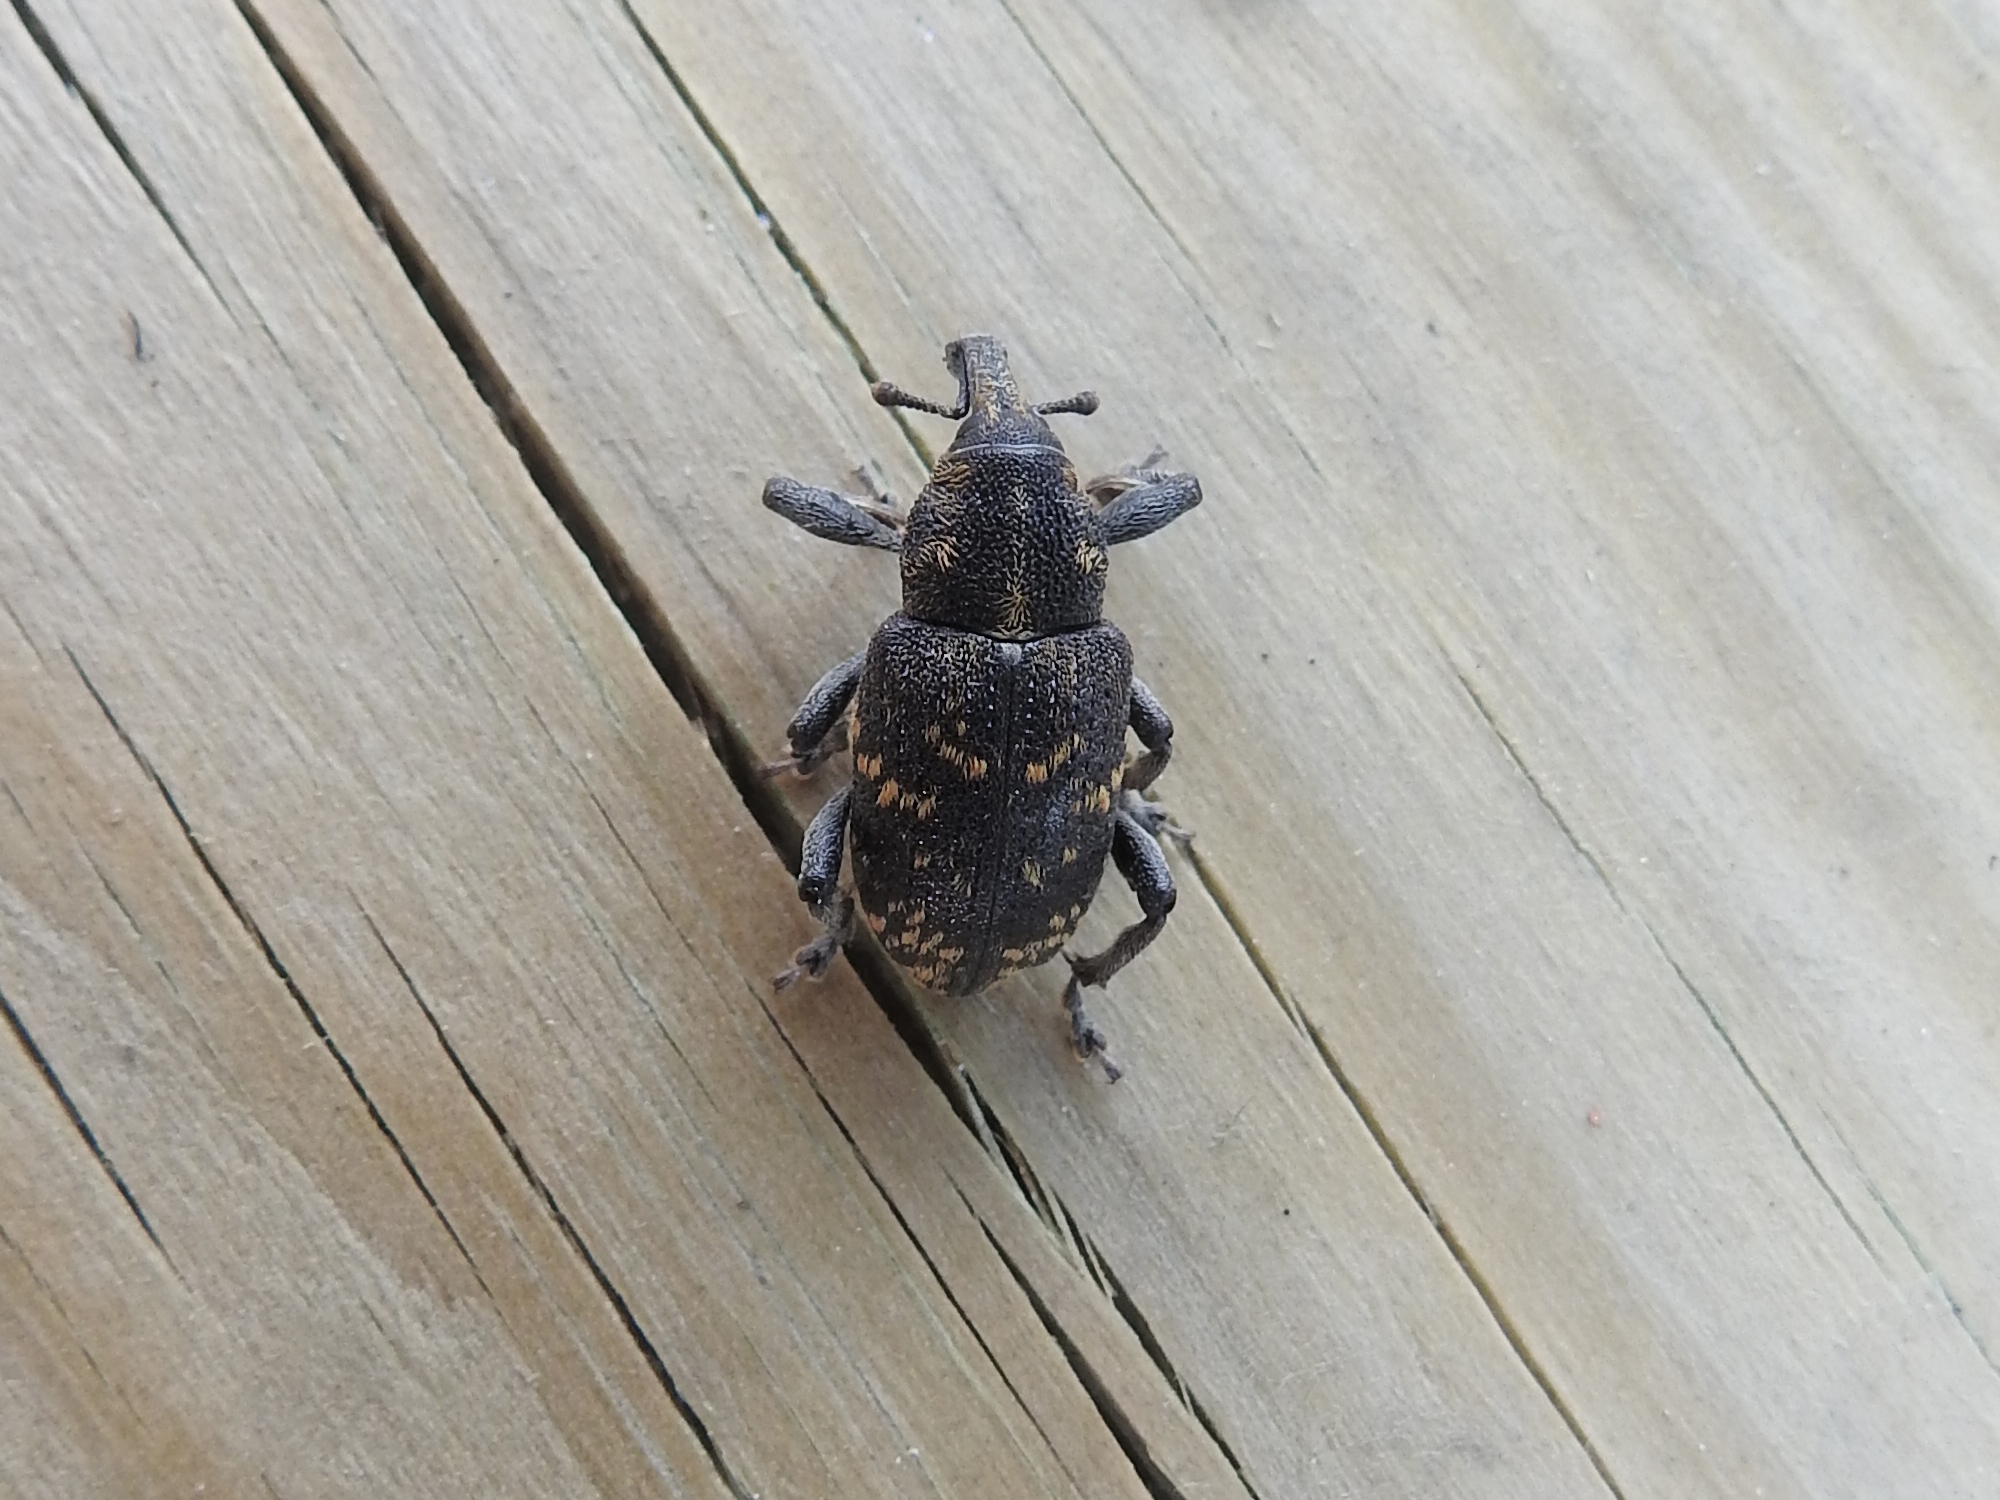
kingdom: Animalia
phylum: Arthropoda
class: Insecta
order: Coleoptera
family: Curculionidae
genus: Hylobius
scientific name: Hylobius abietis
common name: Large pine weevil
